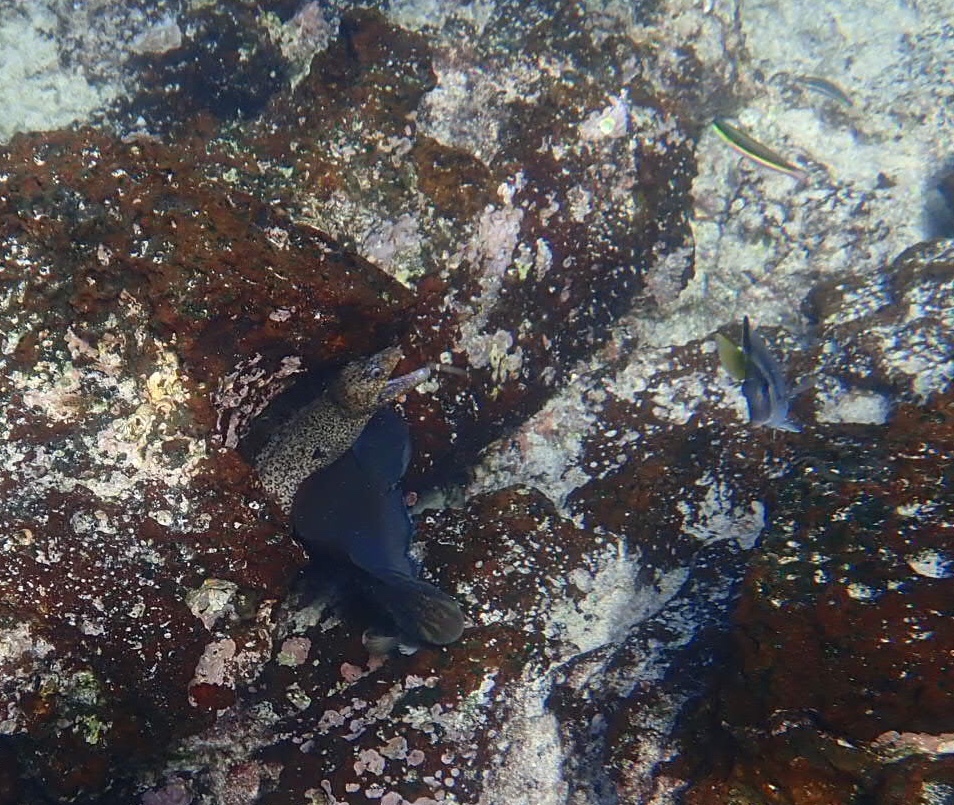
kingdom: Animalia
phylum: Chordata
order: Anguilliformes
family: Muraenidae
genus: Muraena
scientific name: Muraena lentiginosa
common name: Jewel moray
